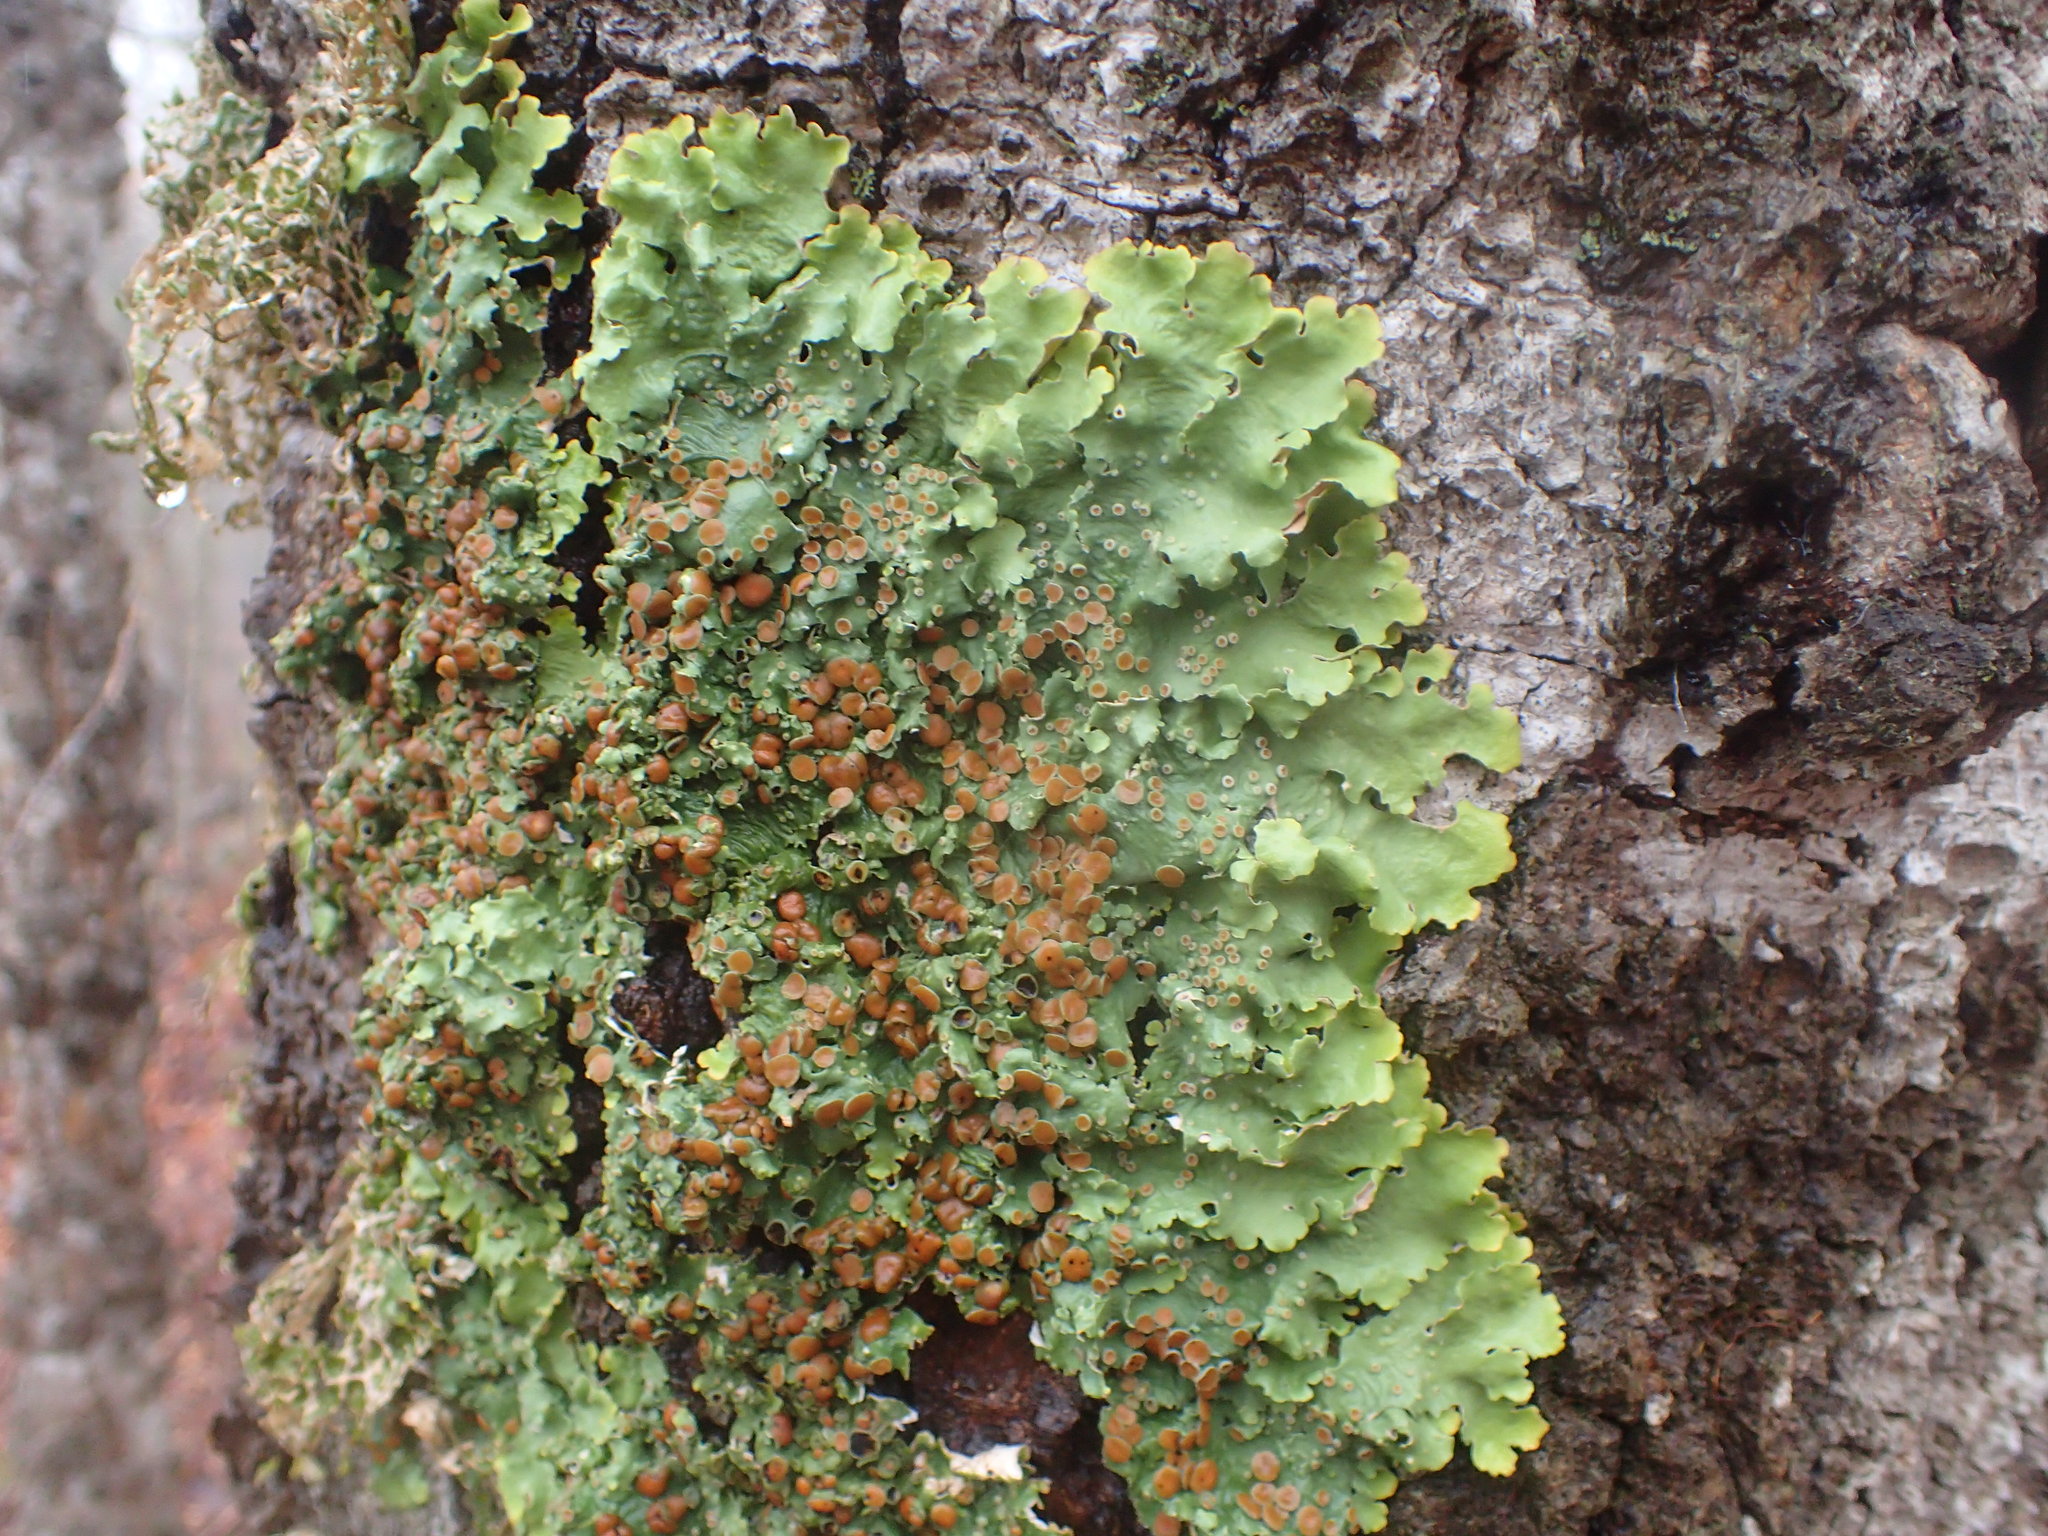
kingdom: Fungi
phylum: Ascomycota
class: Lecanoromycetes
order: Peltigerales
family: Lobariaceae
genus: Ricasolia
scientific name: Ricasolia quercizans
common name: Smooth lungwort
